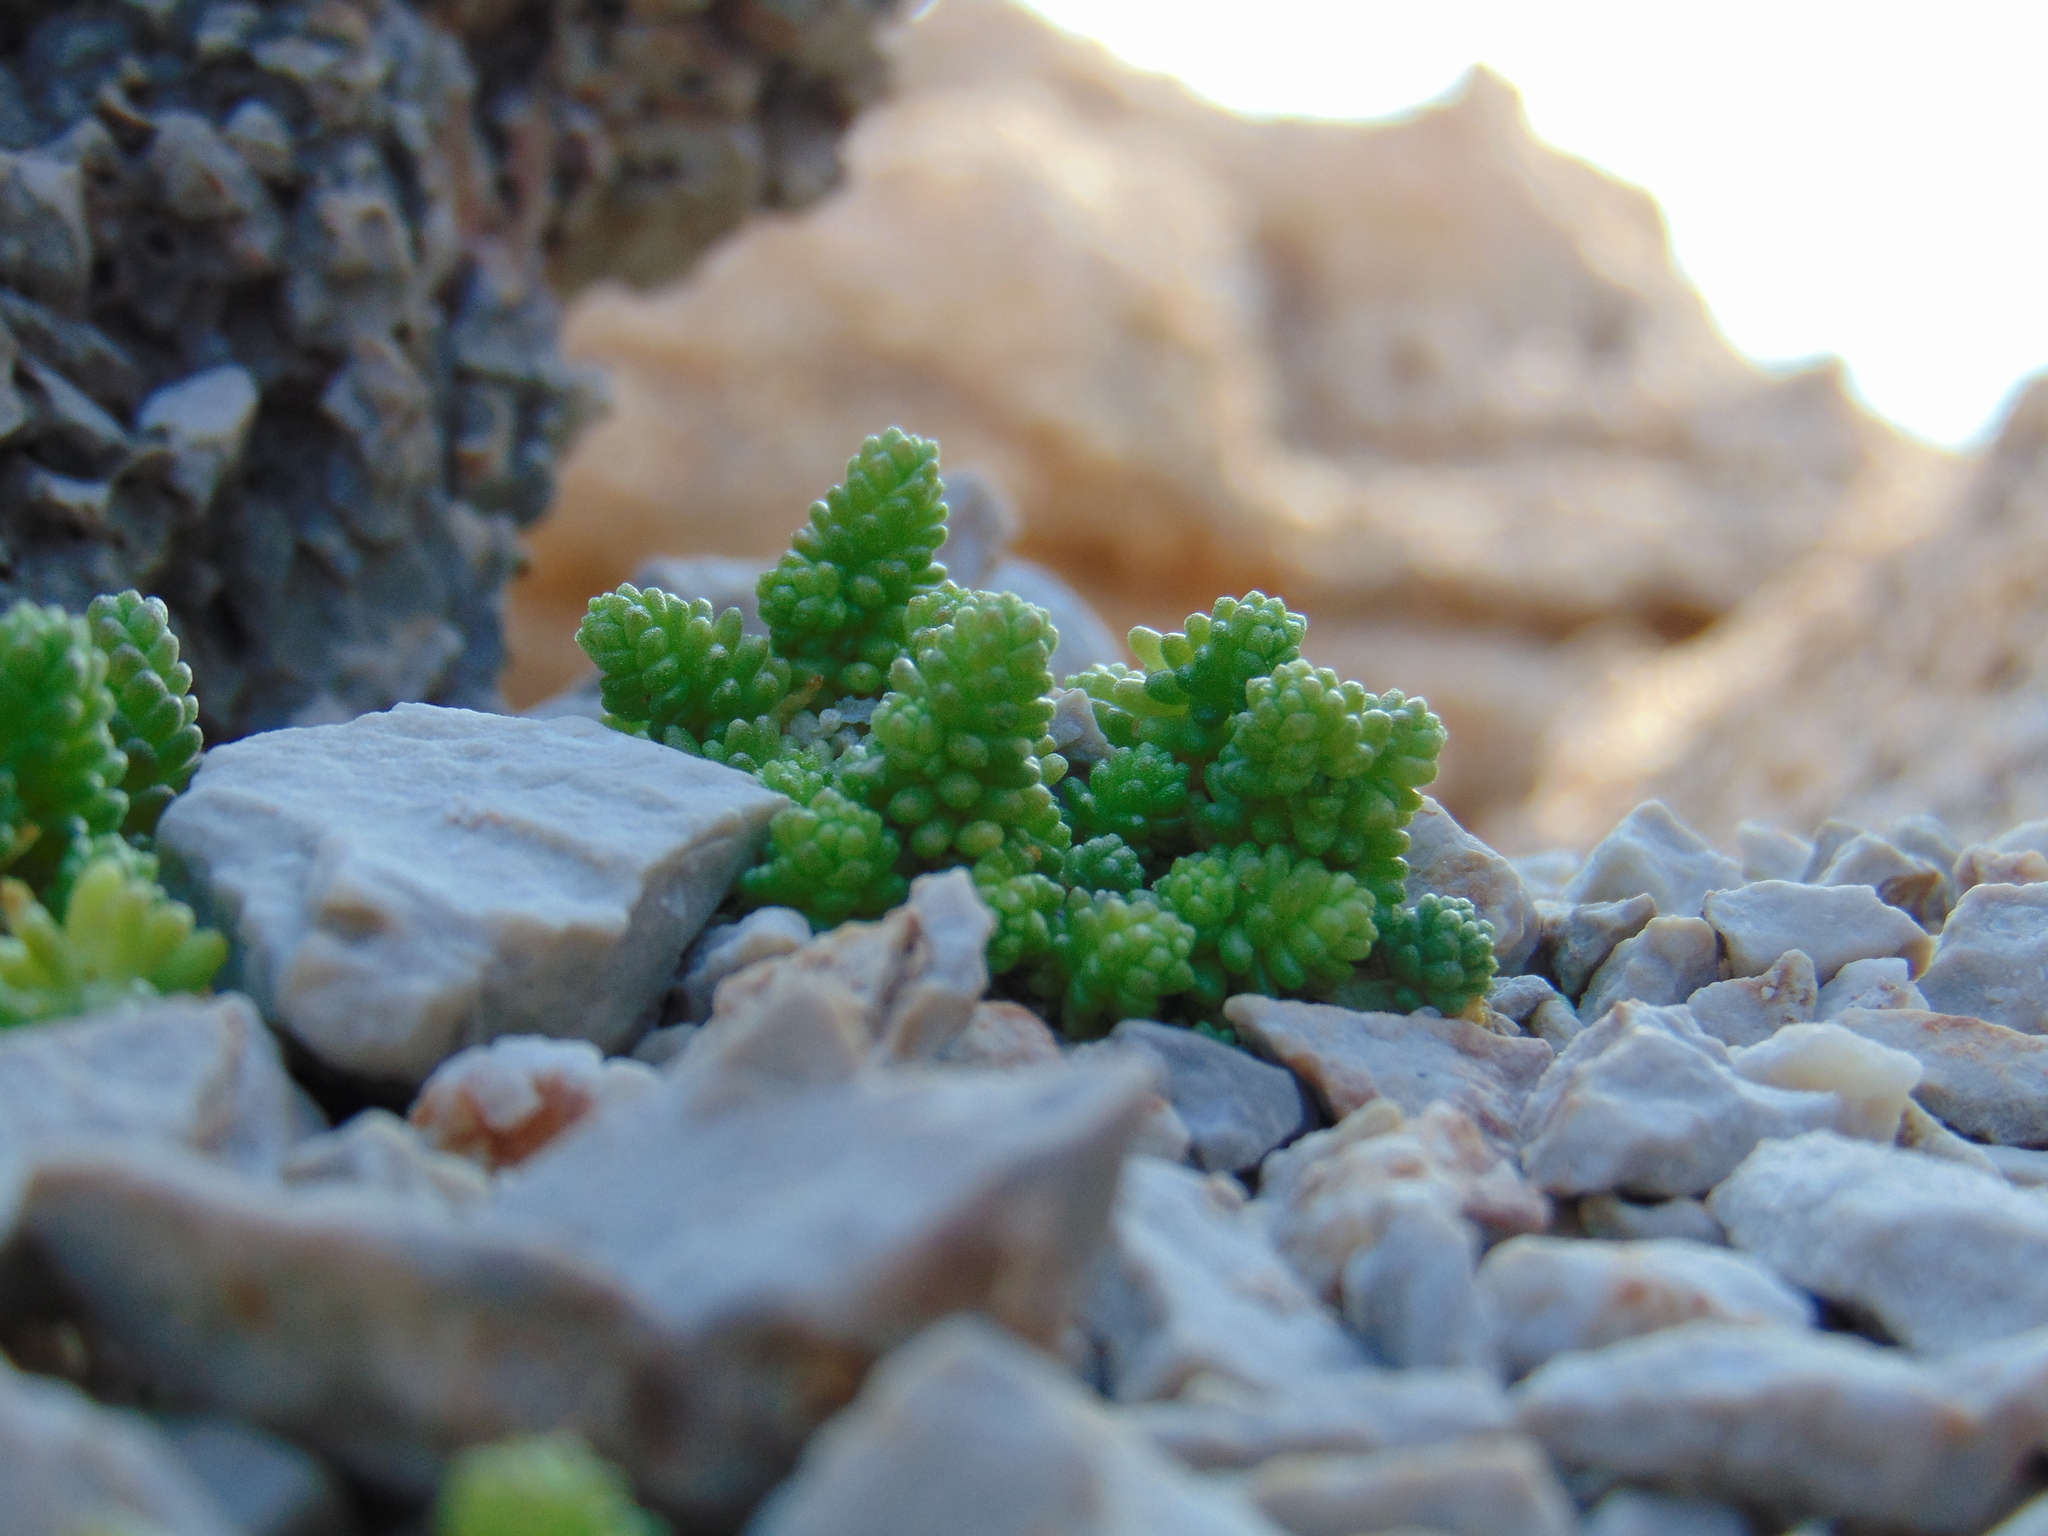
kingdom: Plantae
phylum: Tracheophyta
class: Magnoliopsida
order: Saxifragales
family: Crassulaceae
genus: Sedum
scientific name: Sedum acre
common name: Biting stonecrop
